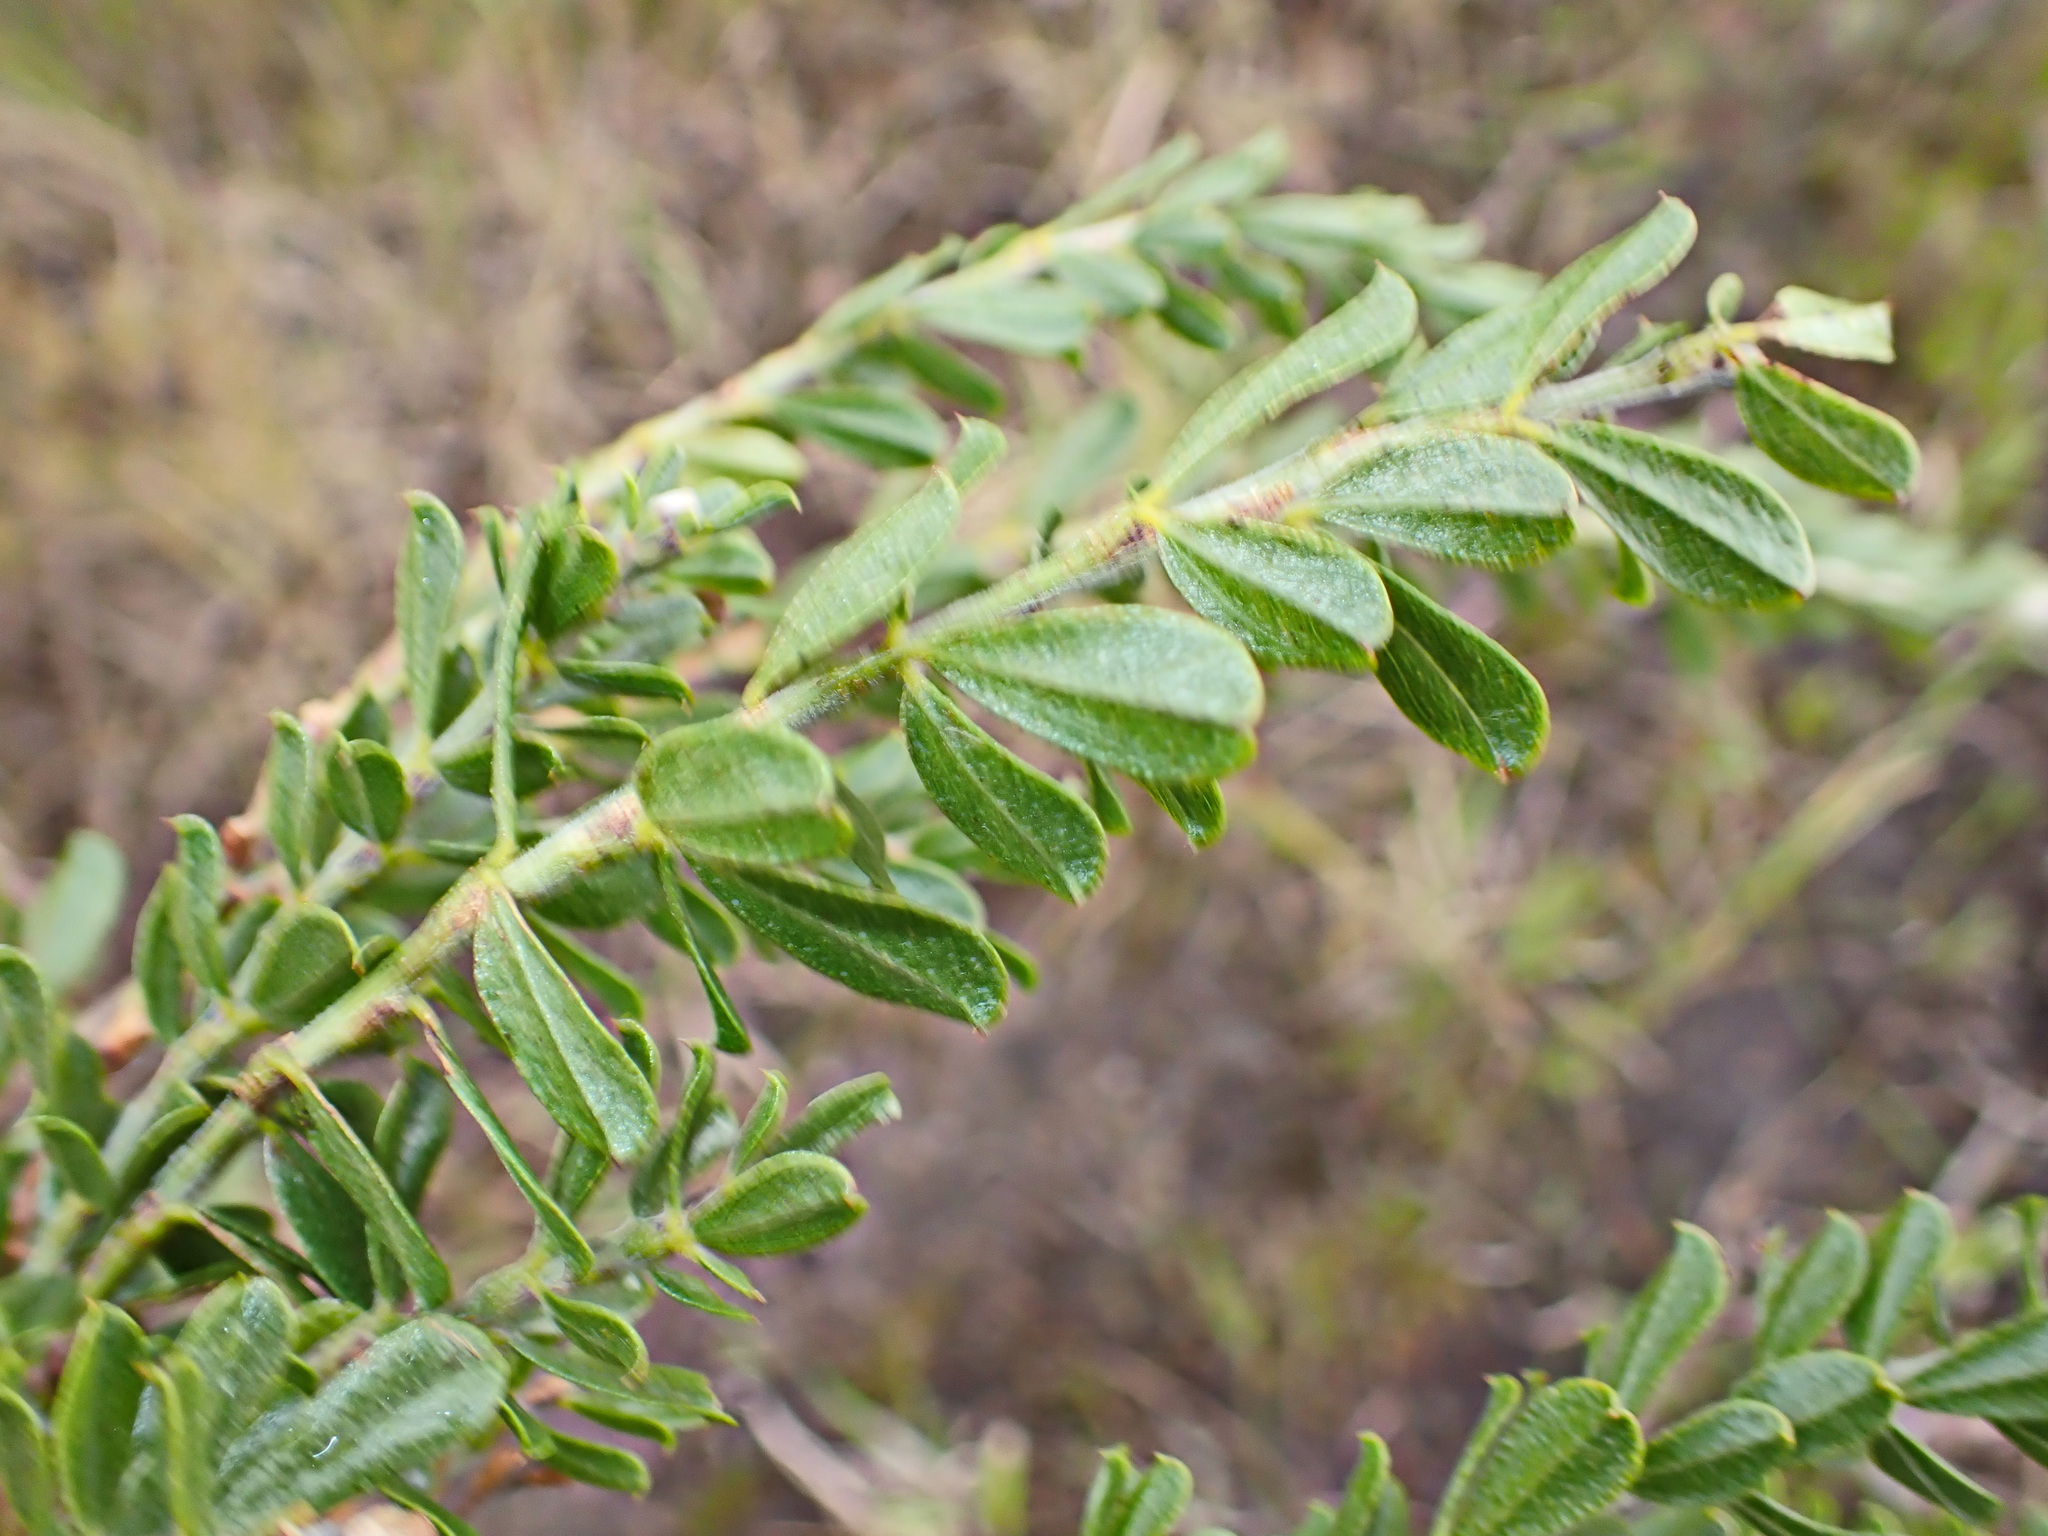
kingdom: Plantae
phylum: Tracheophyta
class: Magnoliopsida
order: Malvales
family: Thymelaeaceae
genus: Gnidia
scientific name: Gnidia oppositifolia
